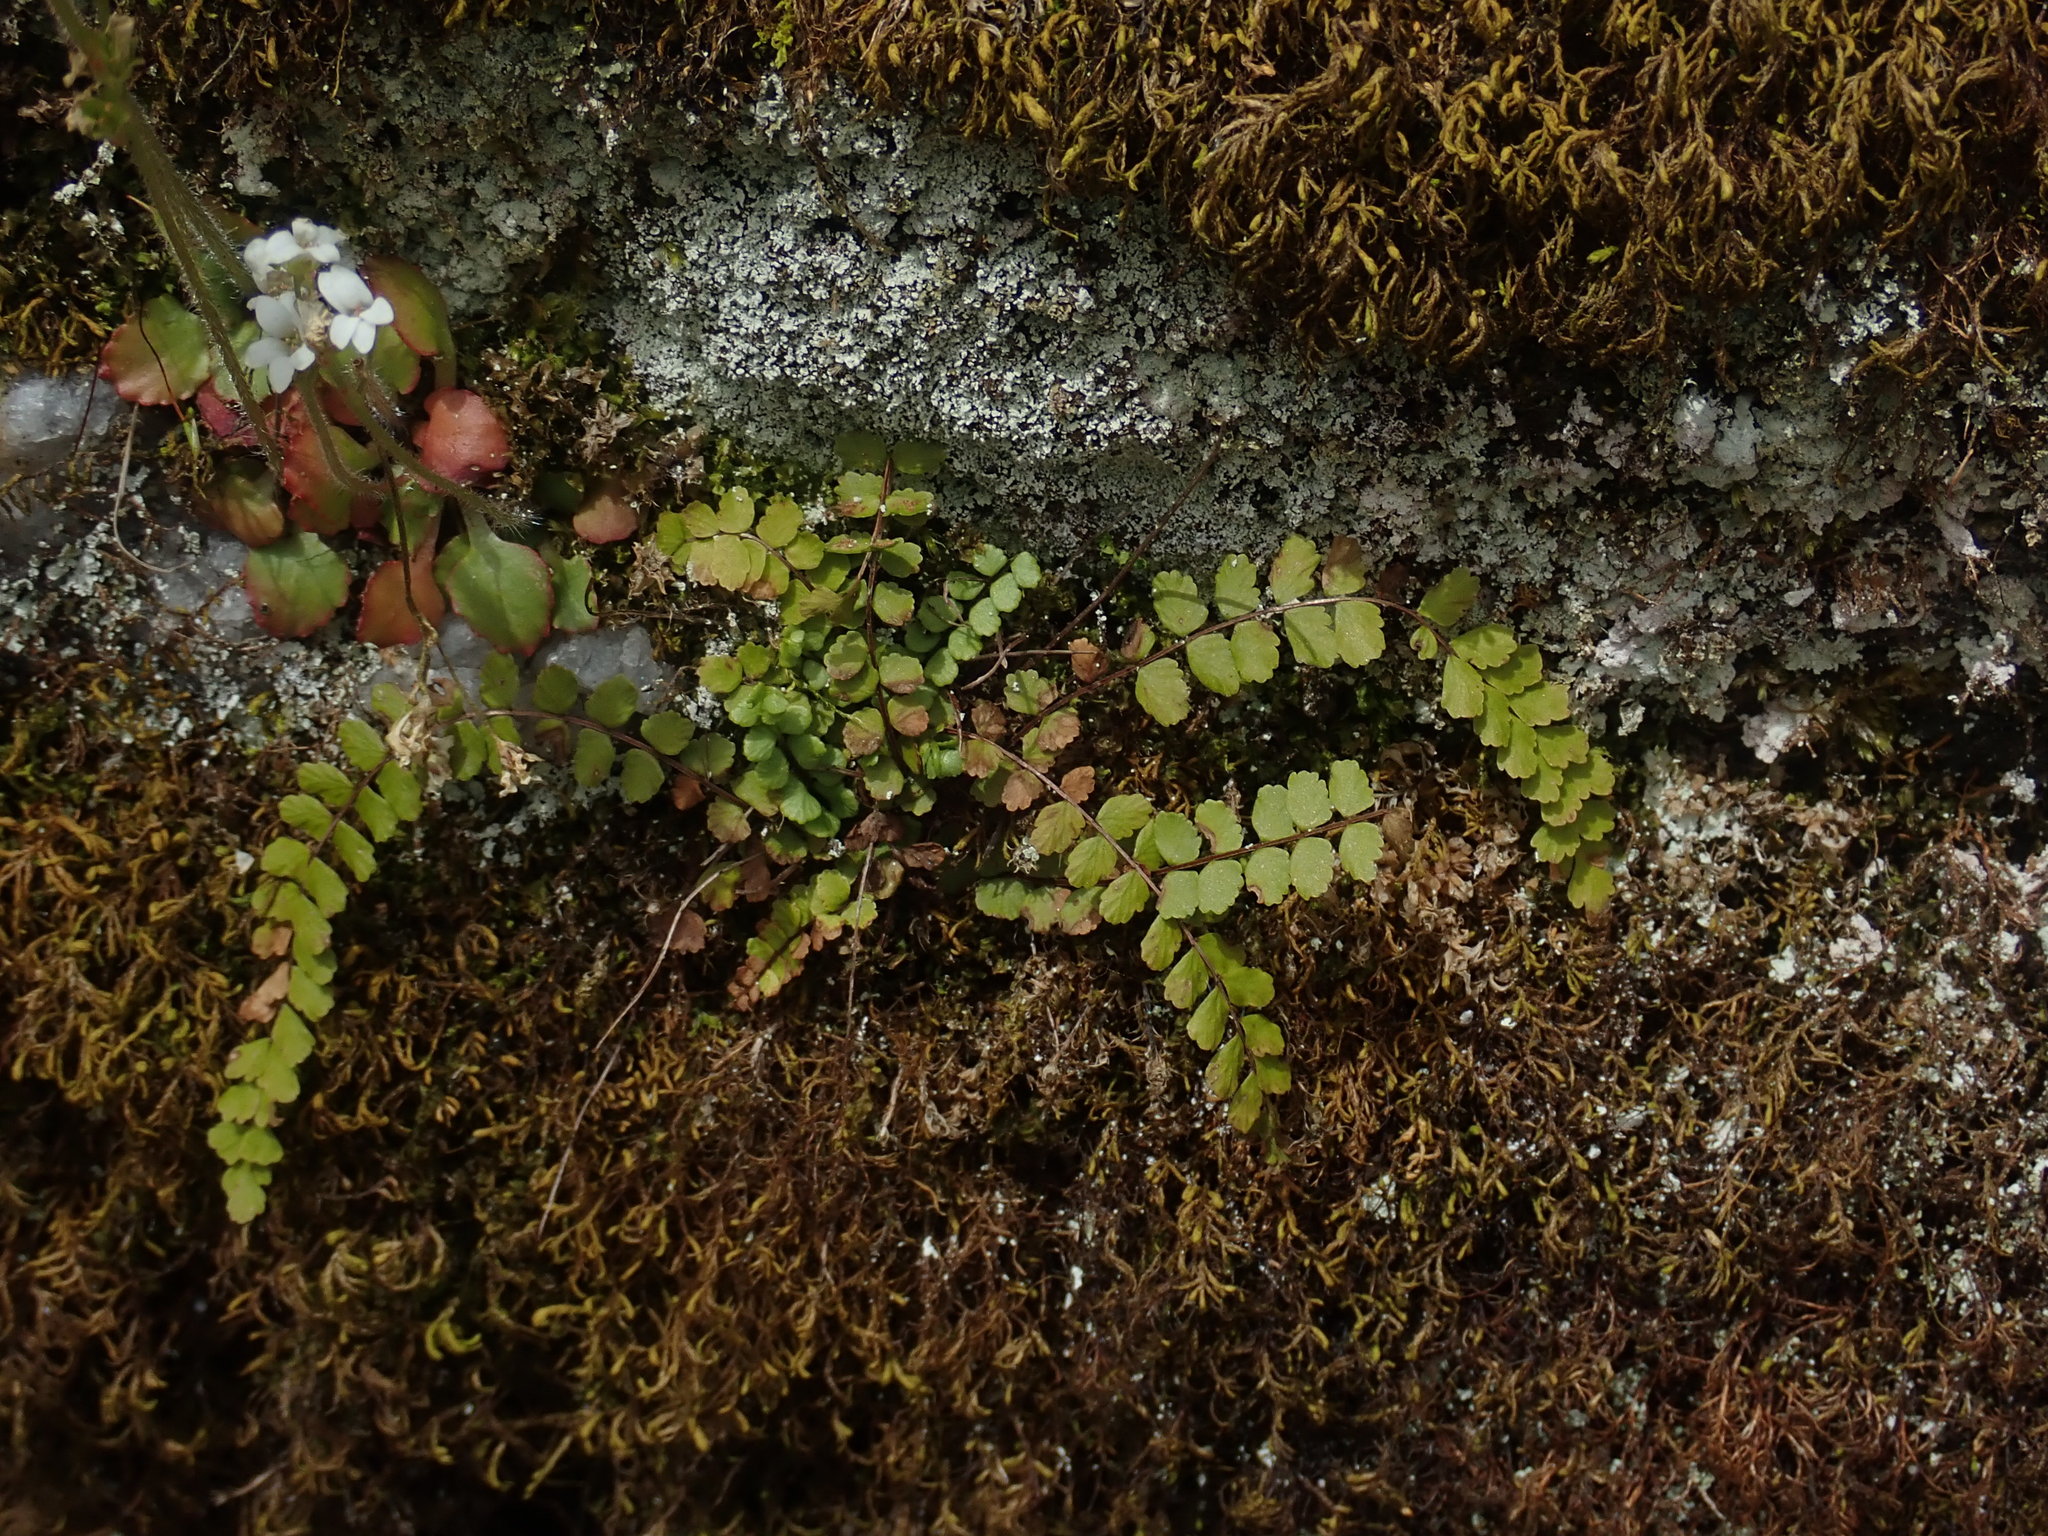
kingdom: Plantae
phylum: Tracheophyta
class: Polypodiopsida
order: Polypodiales
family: Aspleniaceae
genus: Asplenium
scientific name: Asplenium trichomanes
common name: Maidenhair spleenwort
